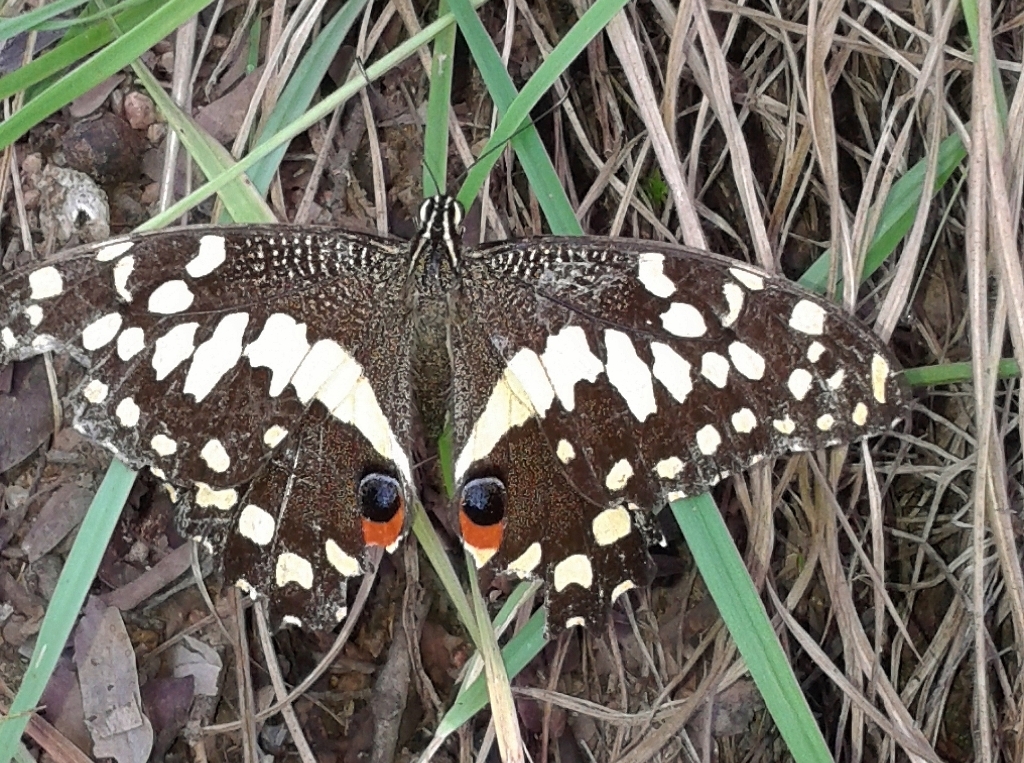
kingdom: Animalia
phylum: Arthropoda
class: Insecta
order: Lepidoptera
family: Papilionidae
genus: Papilio
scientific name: Papilio demodocus
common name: Christmas butterfly
